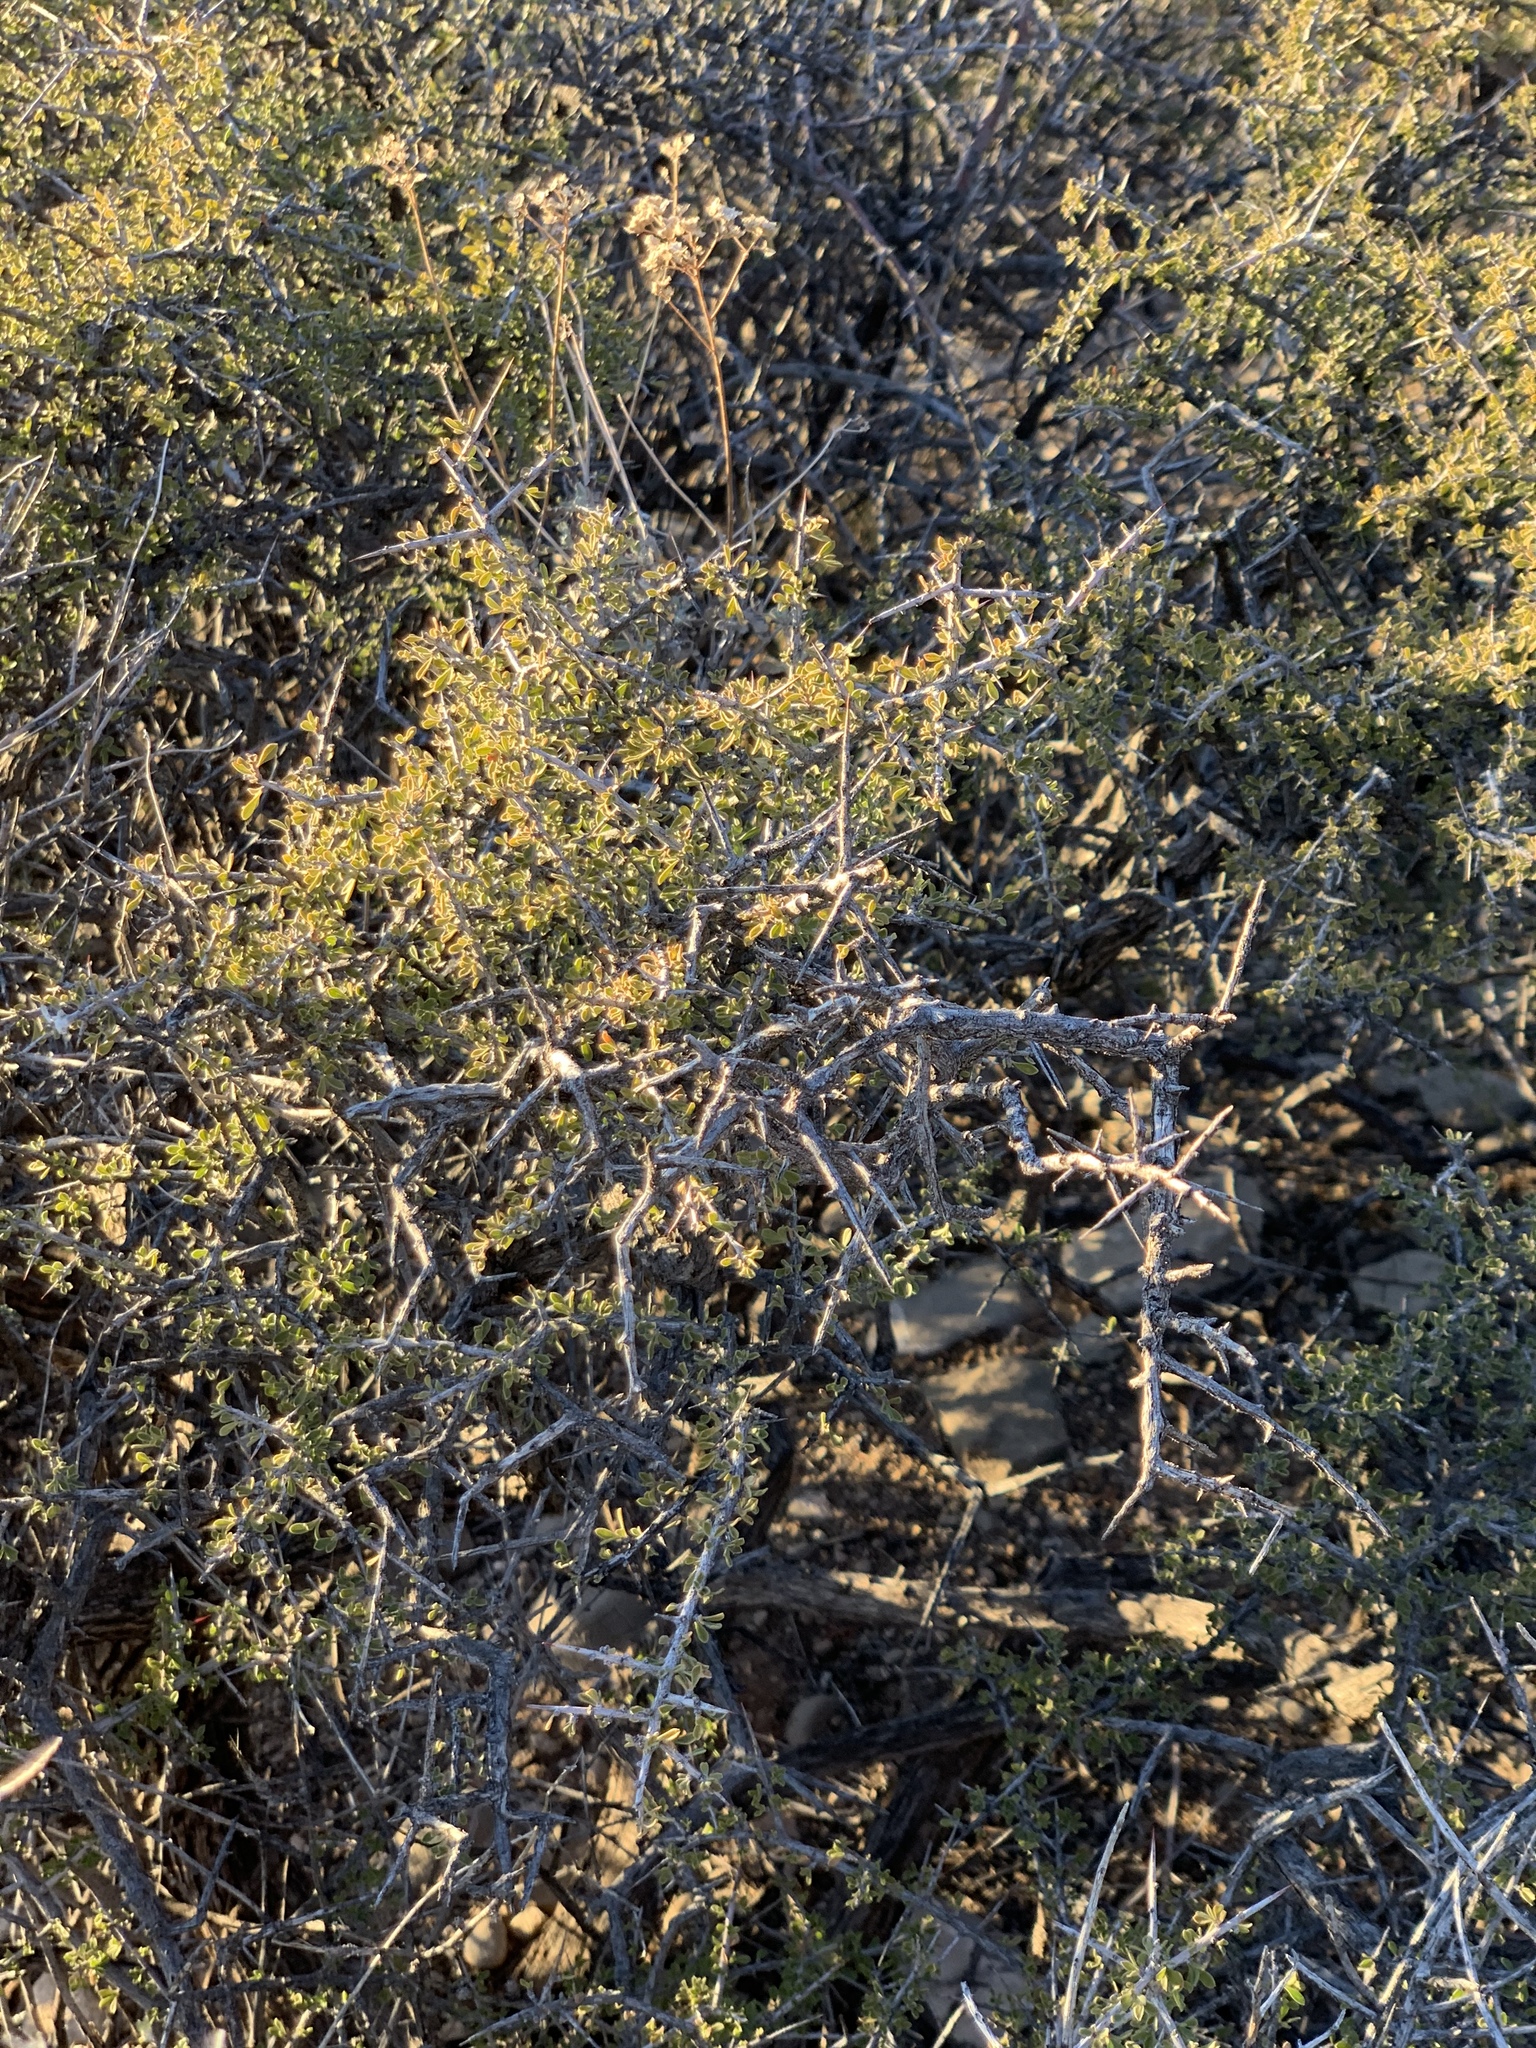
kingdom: Plantae
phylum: Tracheophyta
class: Magnoliopsida
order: Rosales
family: Rhamnaceae
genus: Condalia
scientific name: Condalia warnockii
